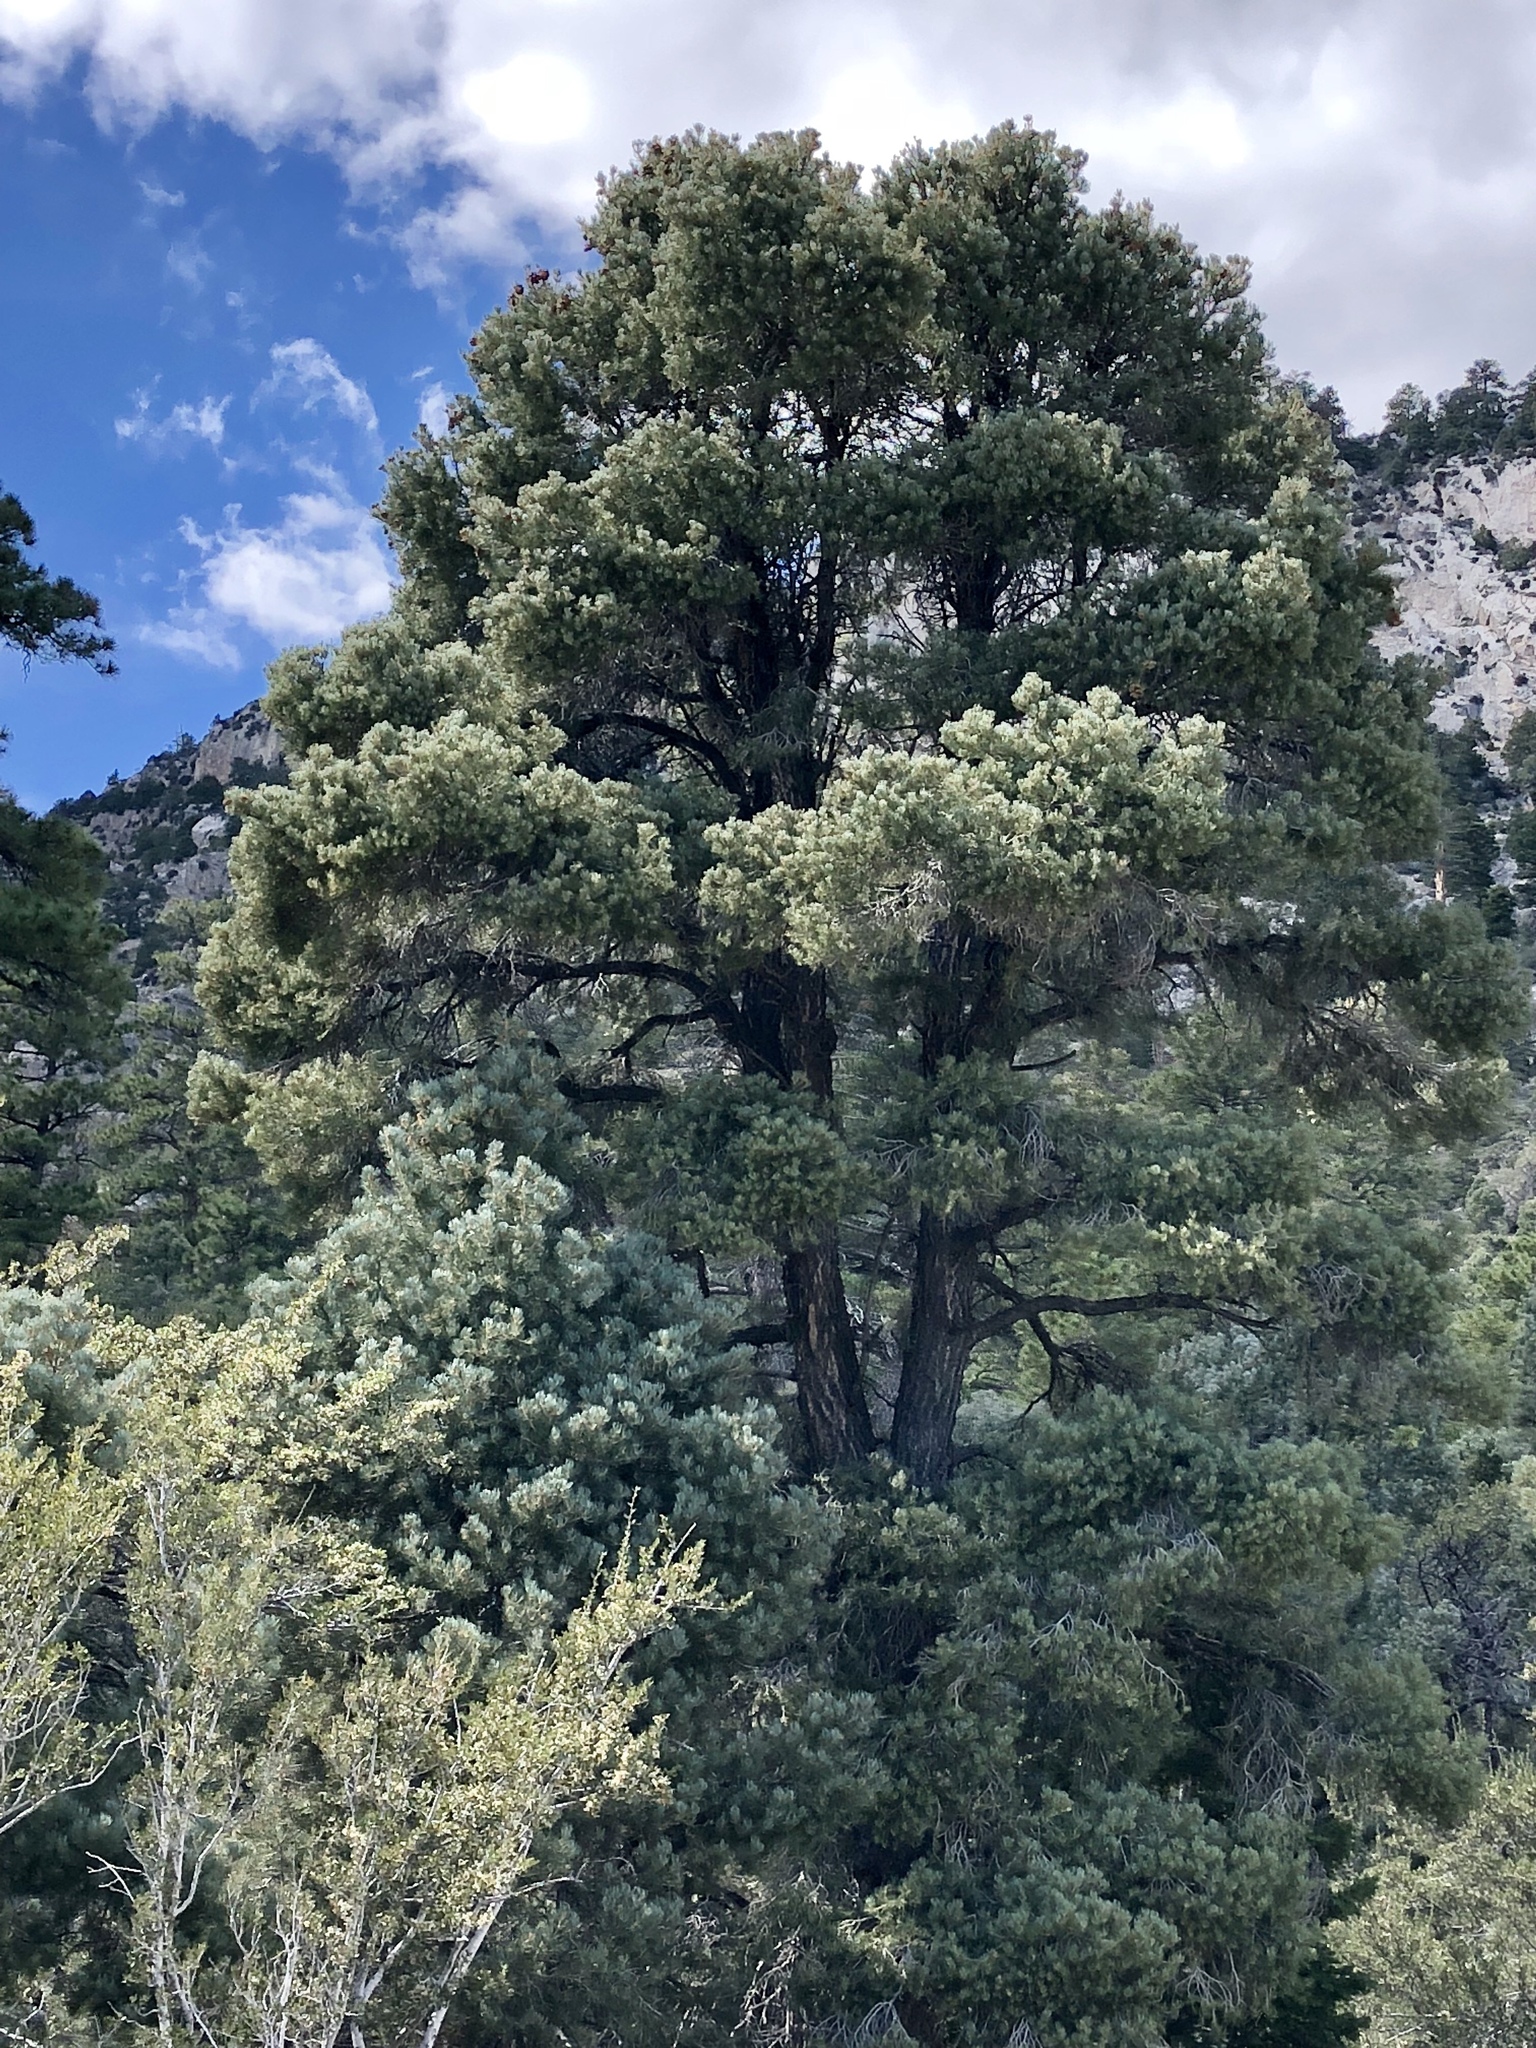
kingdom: Plantae
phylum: Tracheophyta
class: Pinopsida
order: Pinales
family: Pinaceae
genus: Pinus
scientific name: Pinus ponderosa
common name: Western yellow-pine
